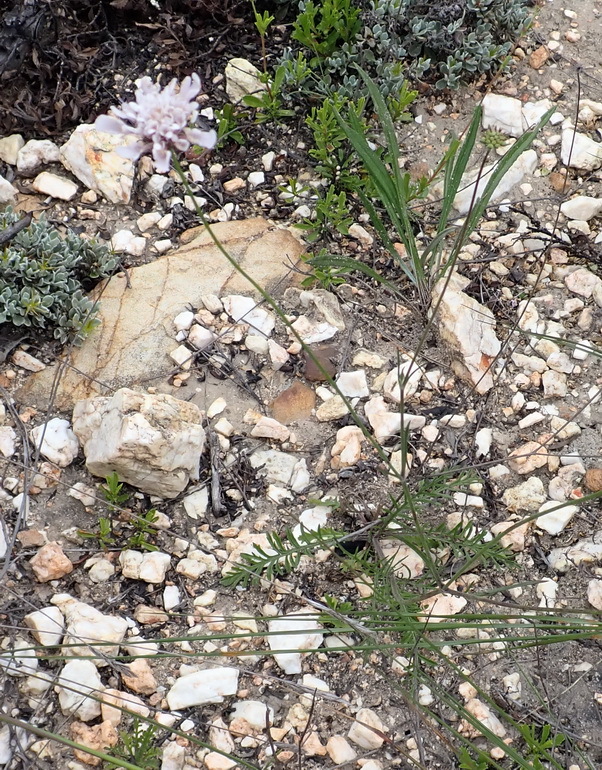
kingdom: Plantae
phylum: Tracheophyta
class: Magnoliopsida
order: Dipsacales
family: Caprifoliaceae
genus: Scabiosa
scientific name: Scabiosa incisa
